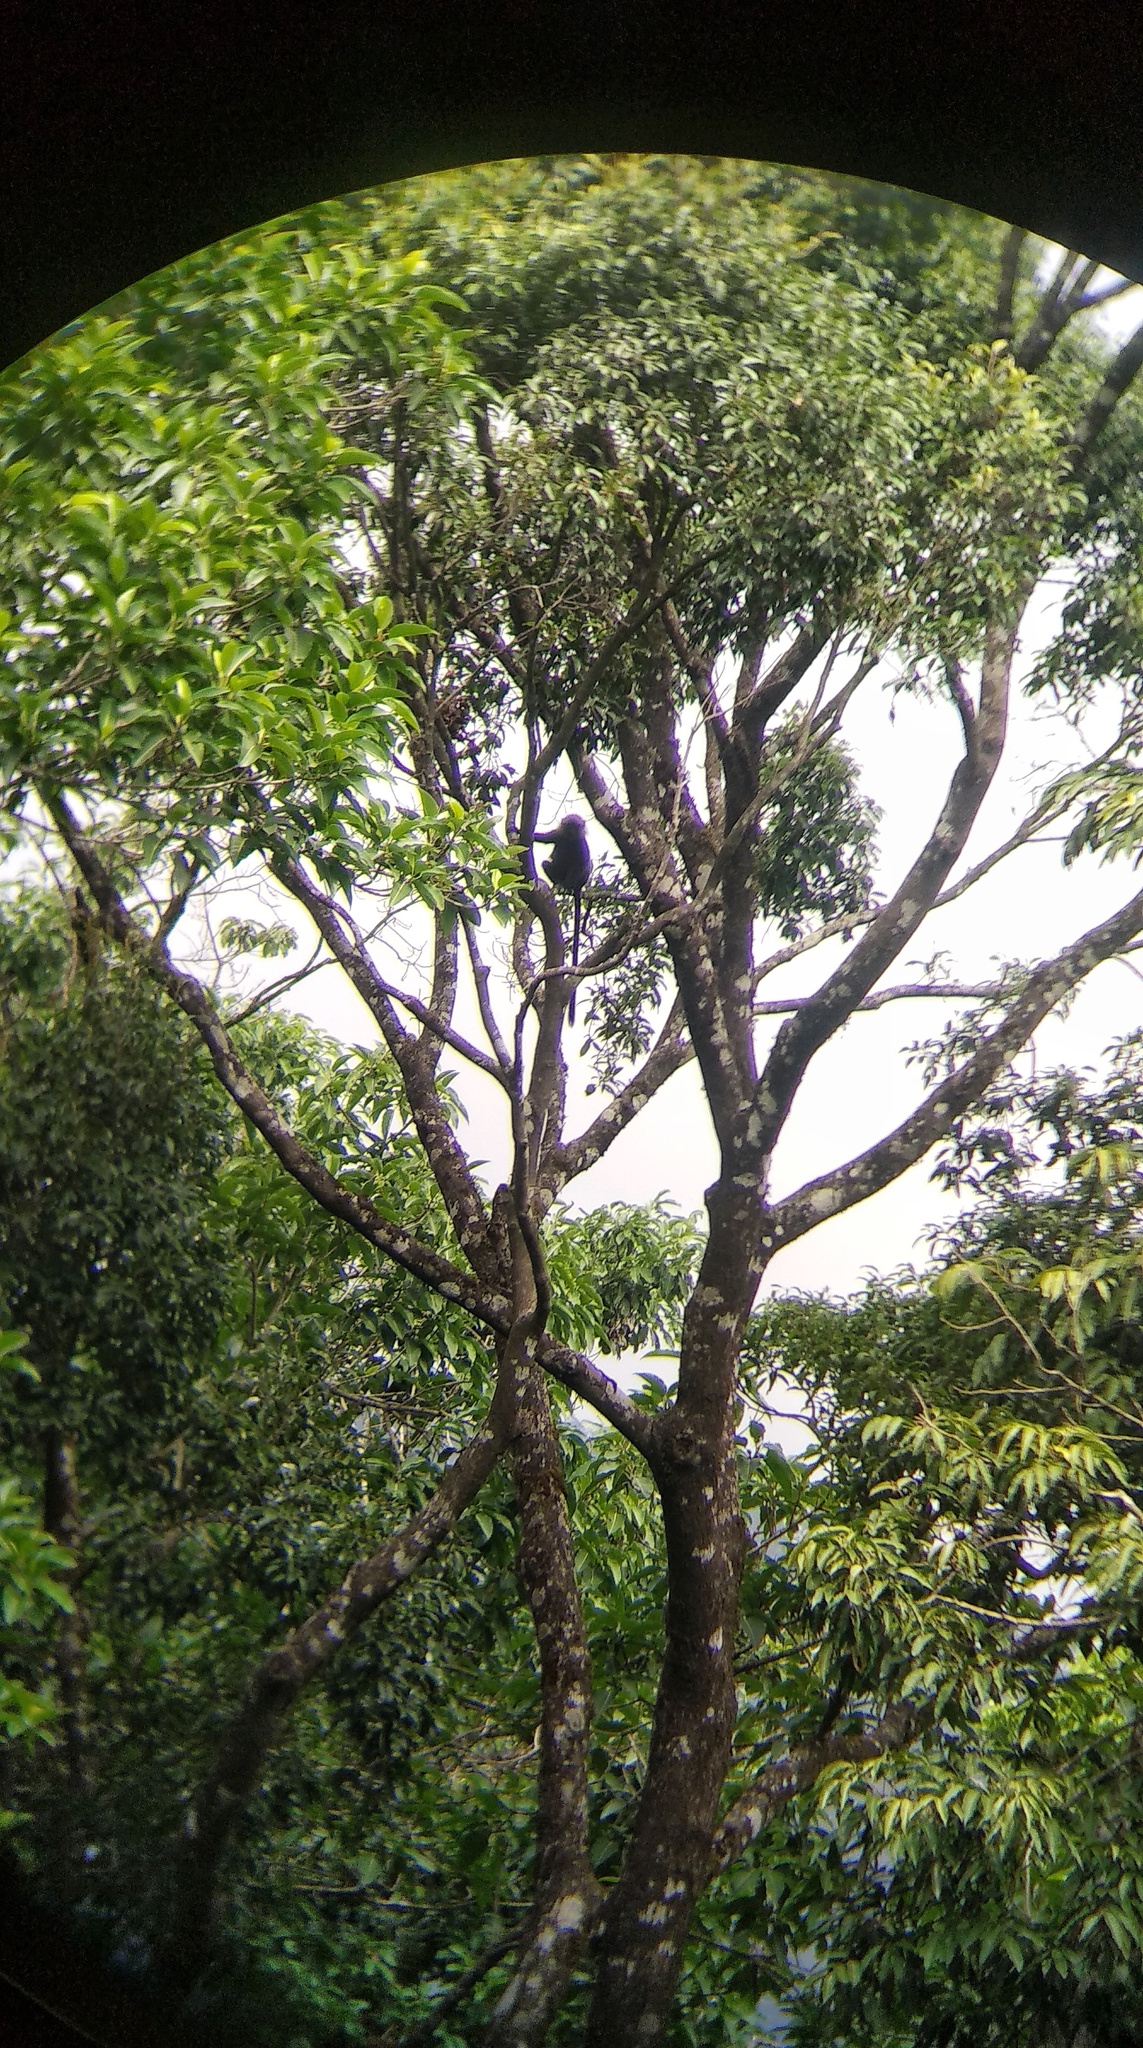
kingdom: Animalia
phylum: Chordata
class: Mammalia
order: Primates
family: Cercopithecidae
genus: Semnopithecus
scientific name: Semnopithecus johnii
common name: Nilgiri langur
